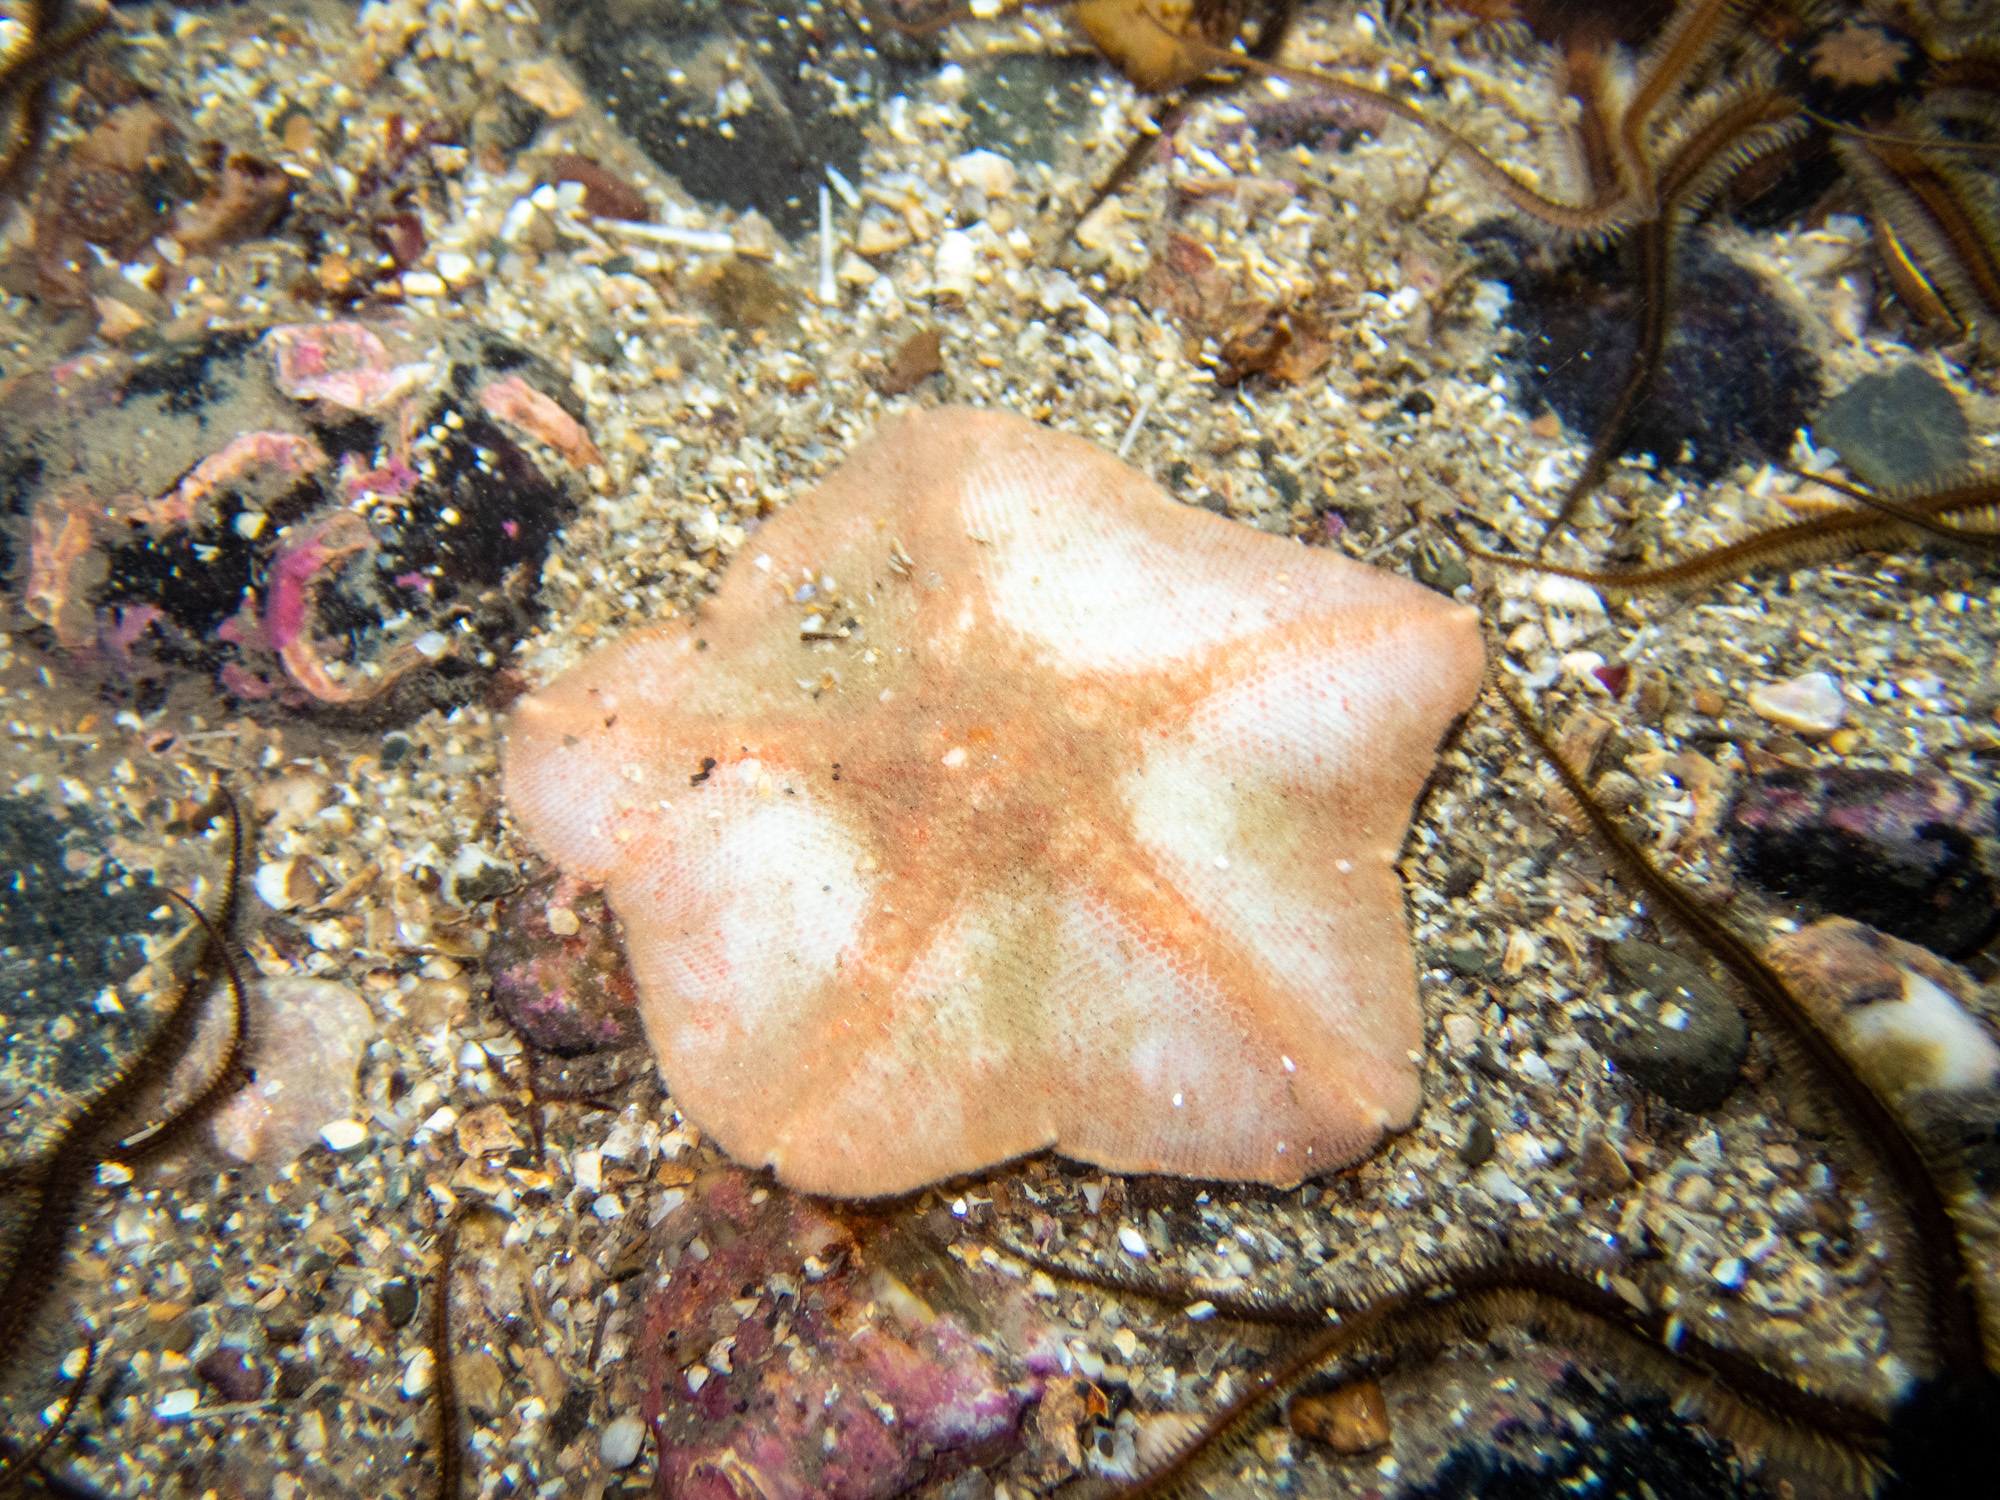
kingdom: Animalia
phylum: Echinodermata
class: Asteroidea
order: Valvatida
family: Anseropodidae
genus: Anseropoda
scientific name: Anseropoda placenta
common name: Goose foot starfish
